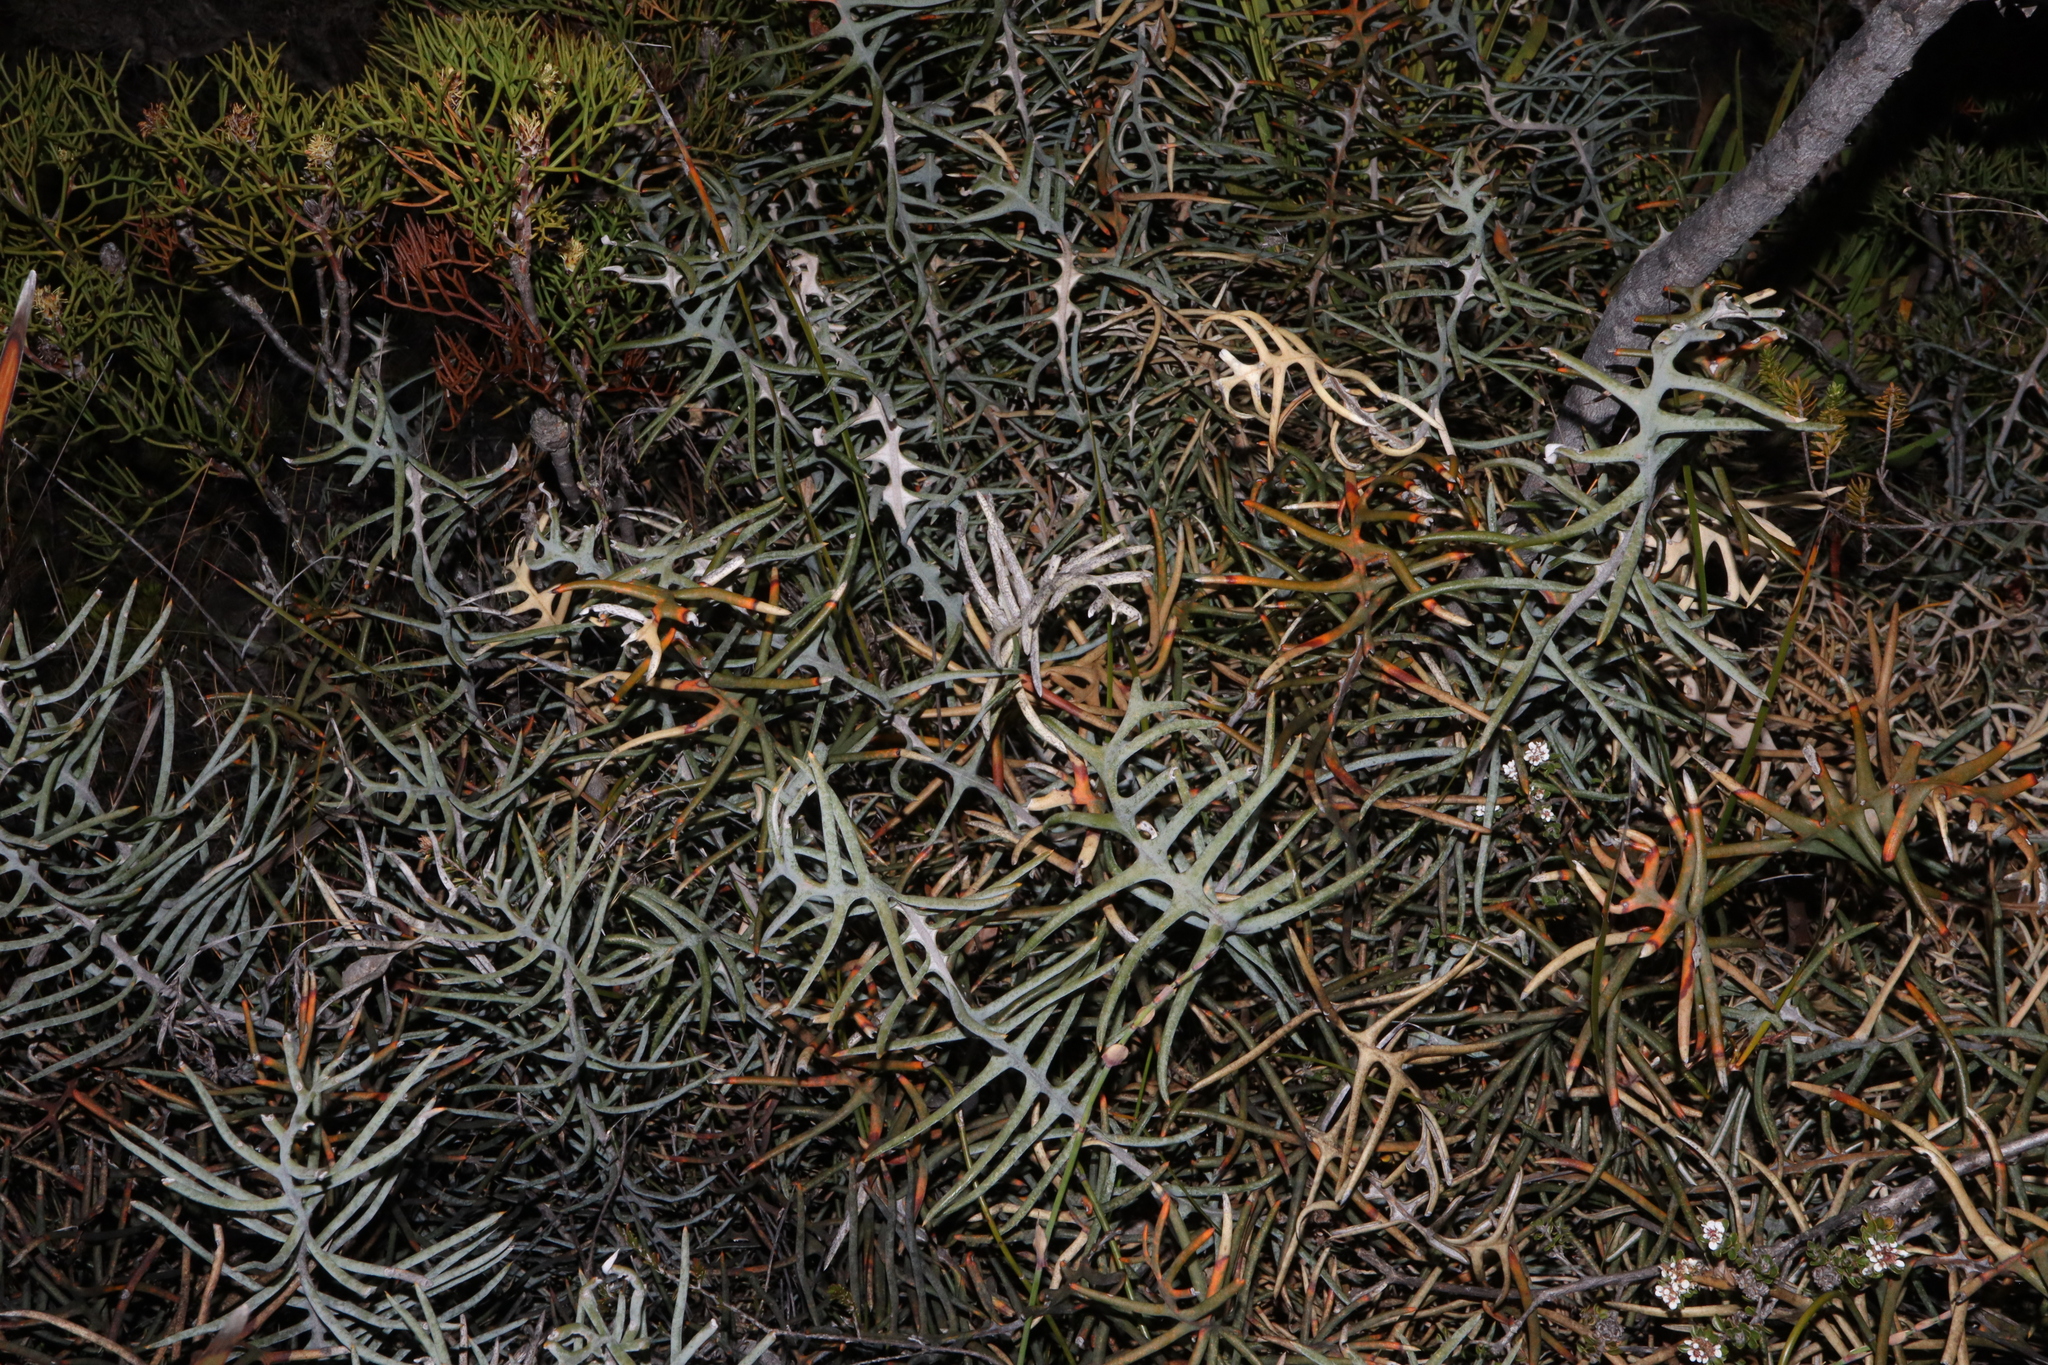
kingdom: Plantae
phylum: Tracheophyta
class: Magnoliopsida
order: Proteales
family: Proteaceae
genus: Banksia
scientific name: Banksia pteridifolia
